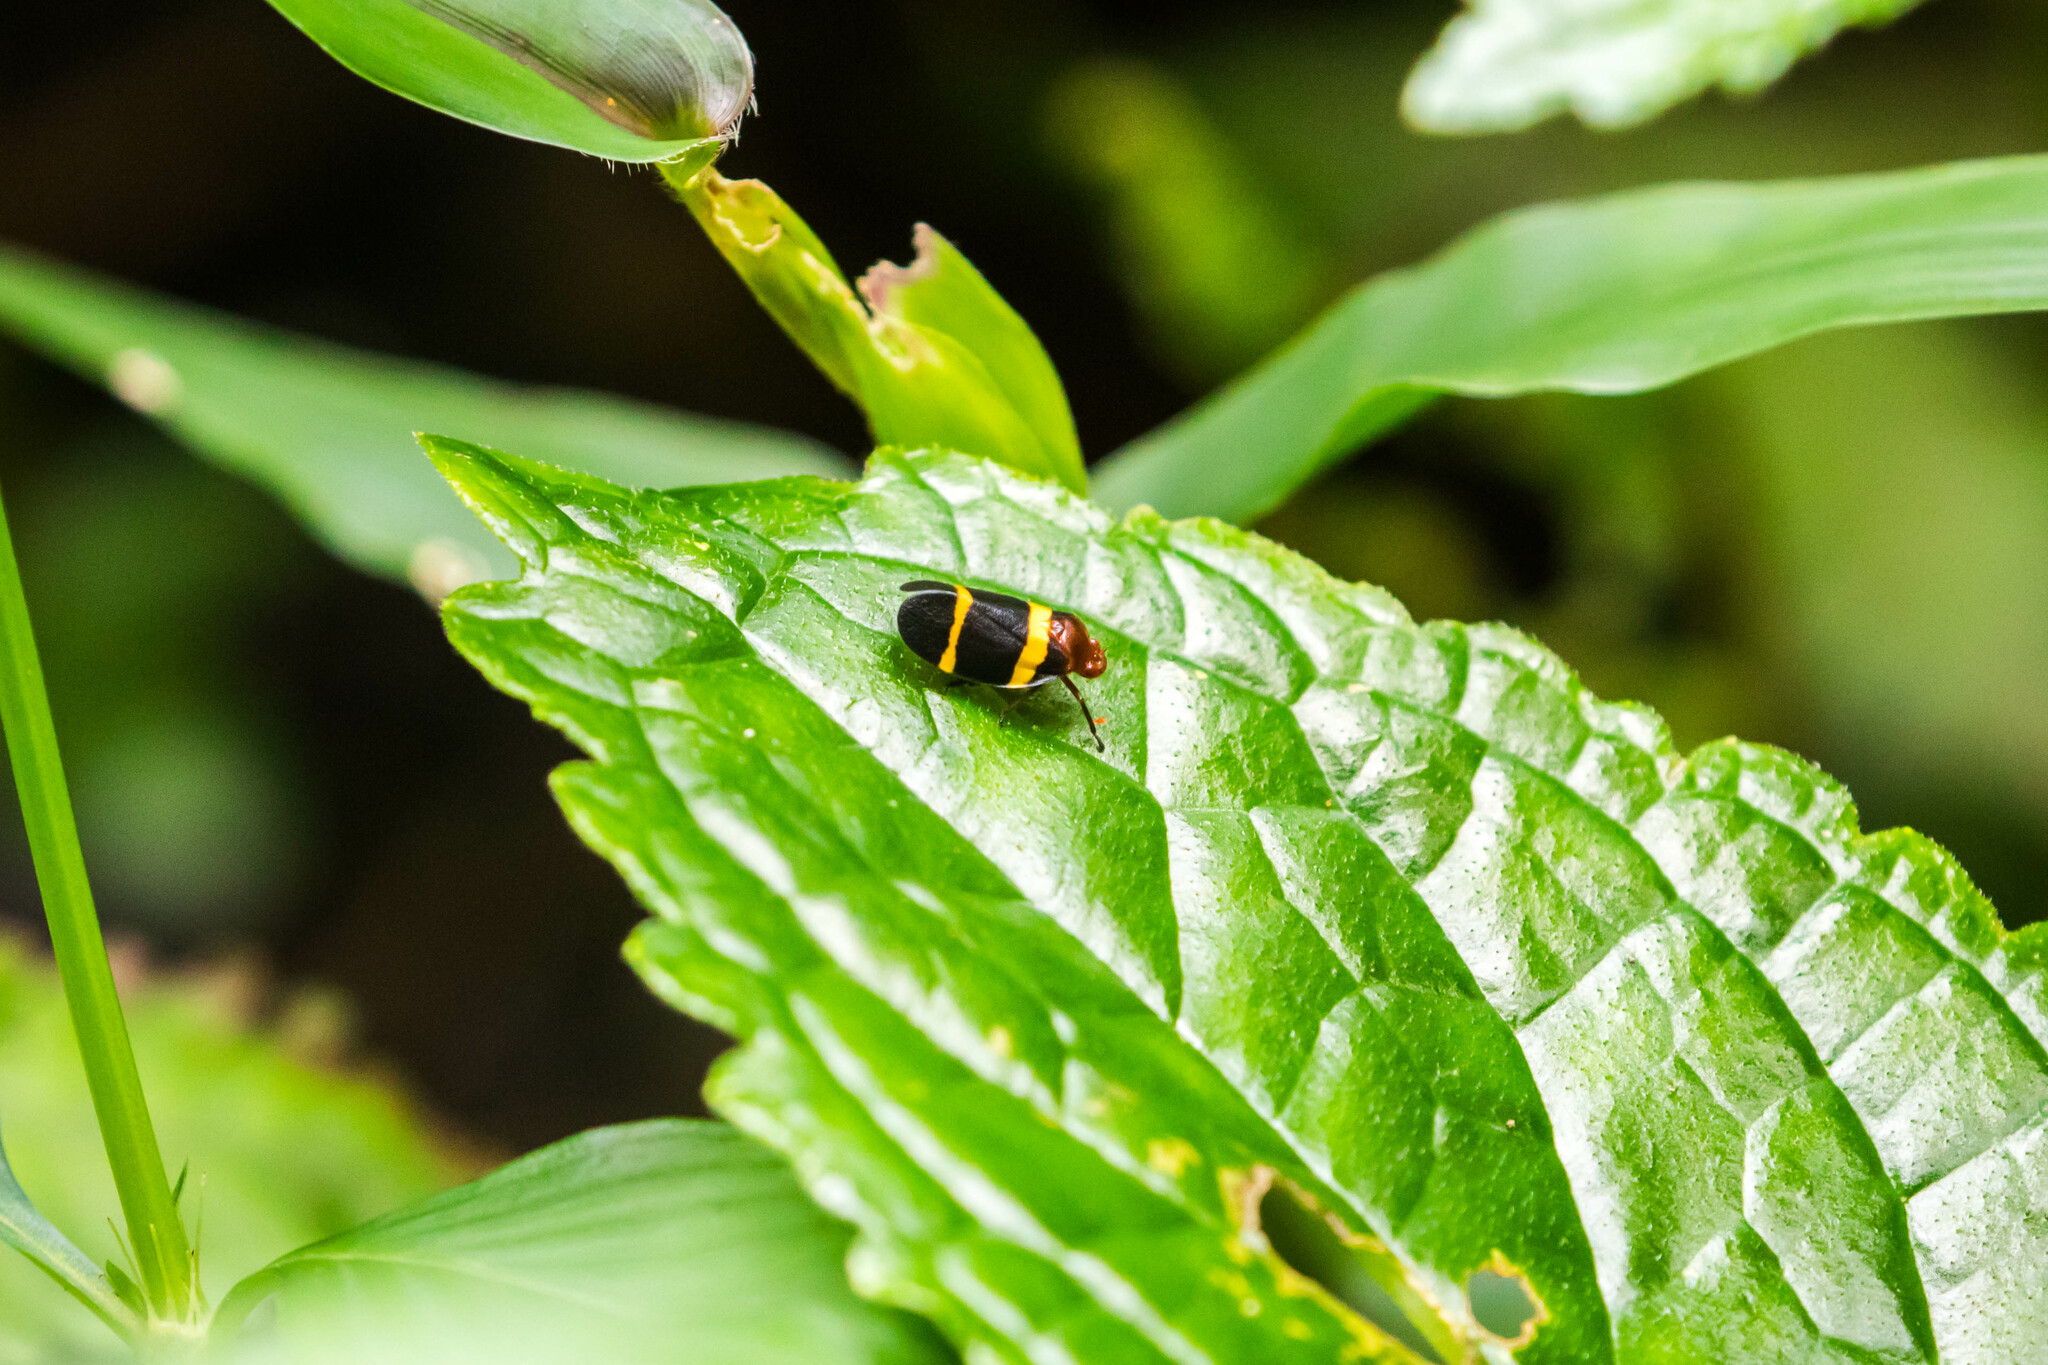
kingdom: Animalia
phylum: Arthropoda
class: Insecta
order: Hemiptera
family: Cercopidae
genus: Sphenorhina
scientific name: Sphenorhina rubra
